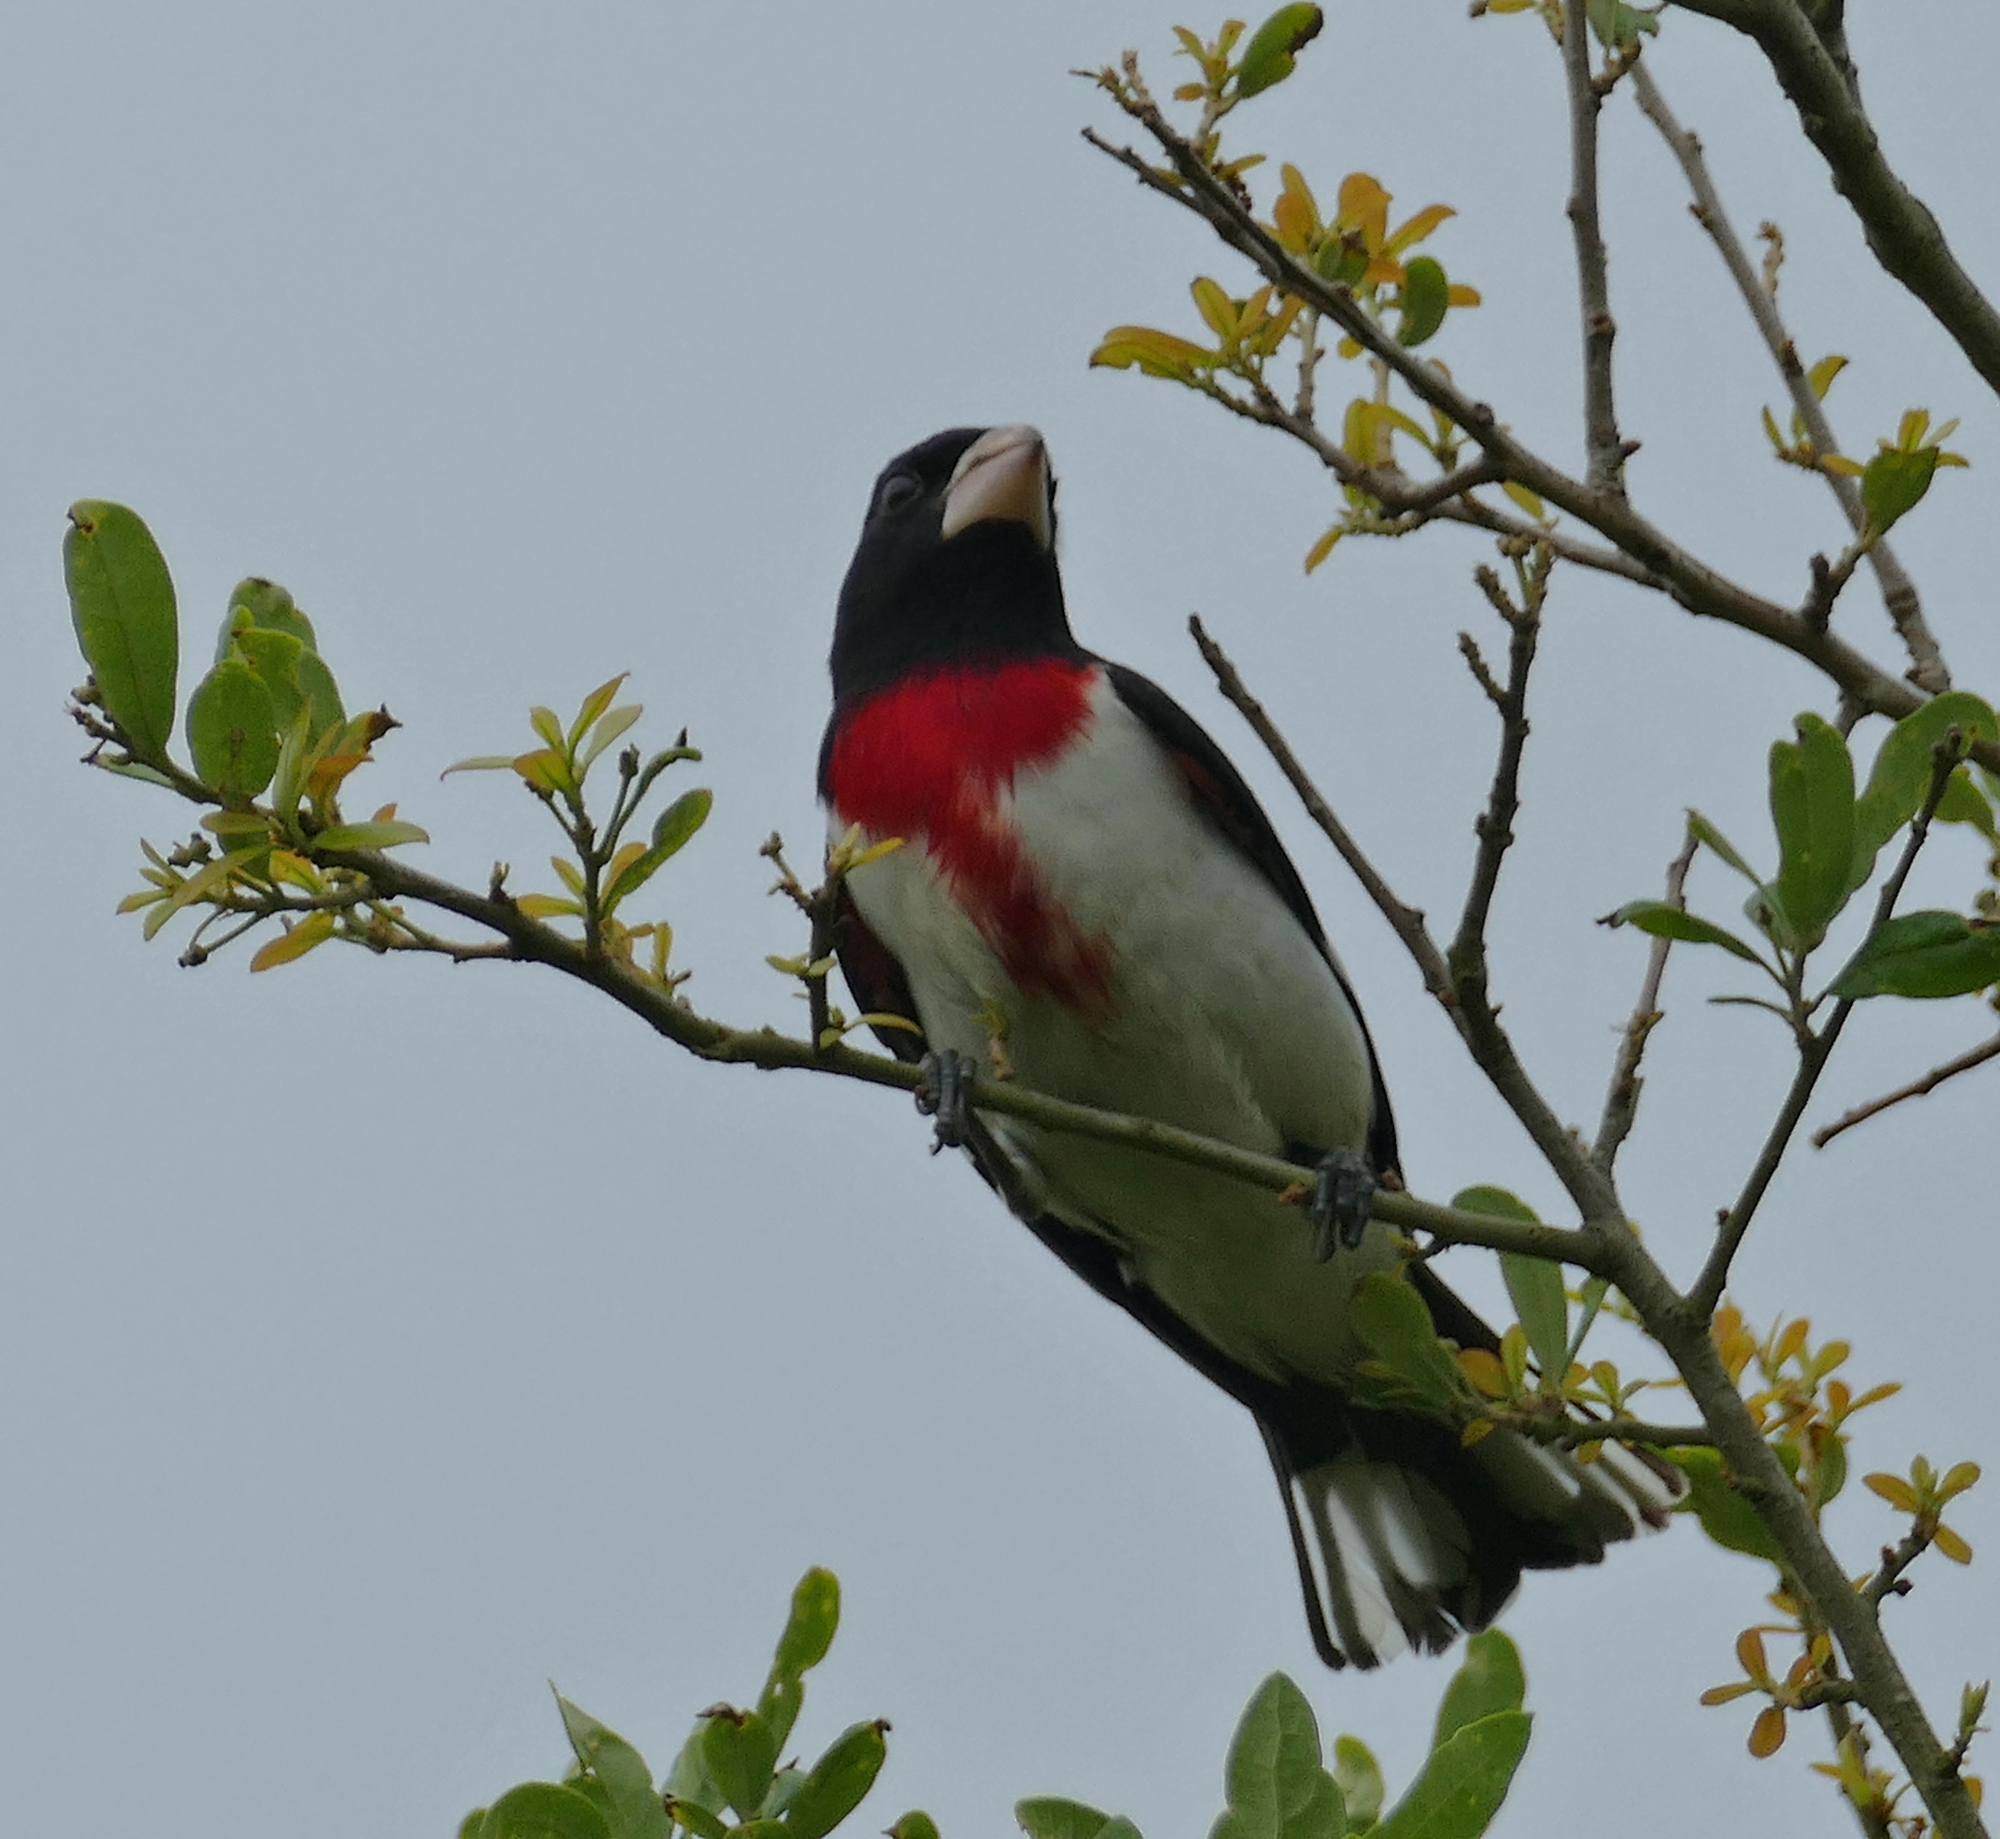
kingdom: Animalia
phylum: Chordata
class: Aves
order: Passeriformes
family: Cardinalidae
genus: Pheucticus
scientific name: Pheucticus ludovicianus
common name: Rose-breasted grosbeak
